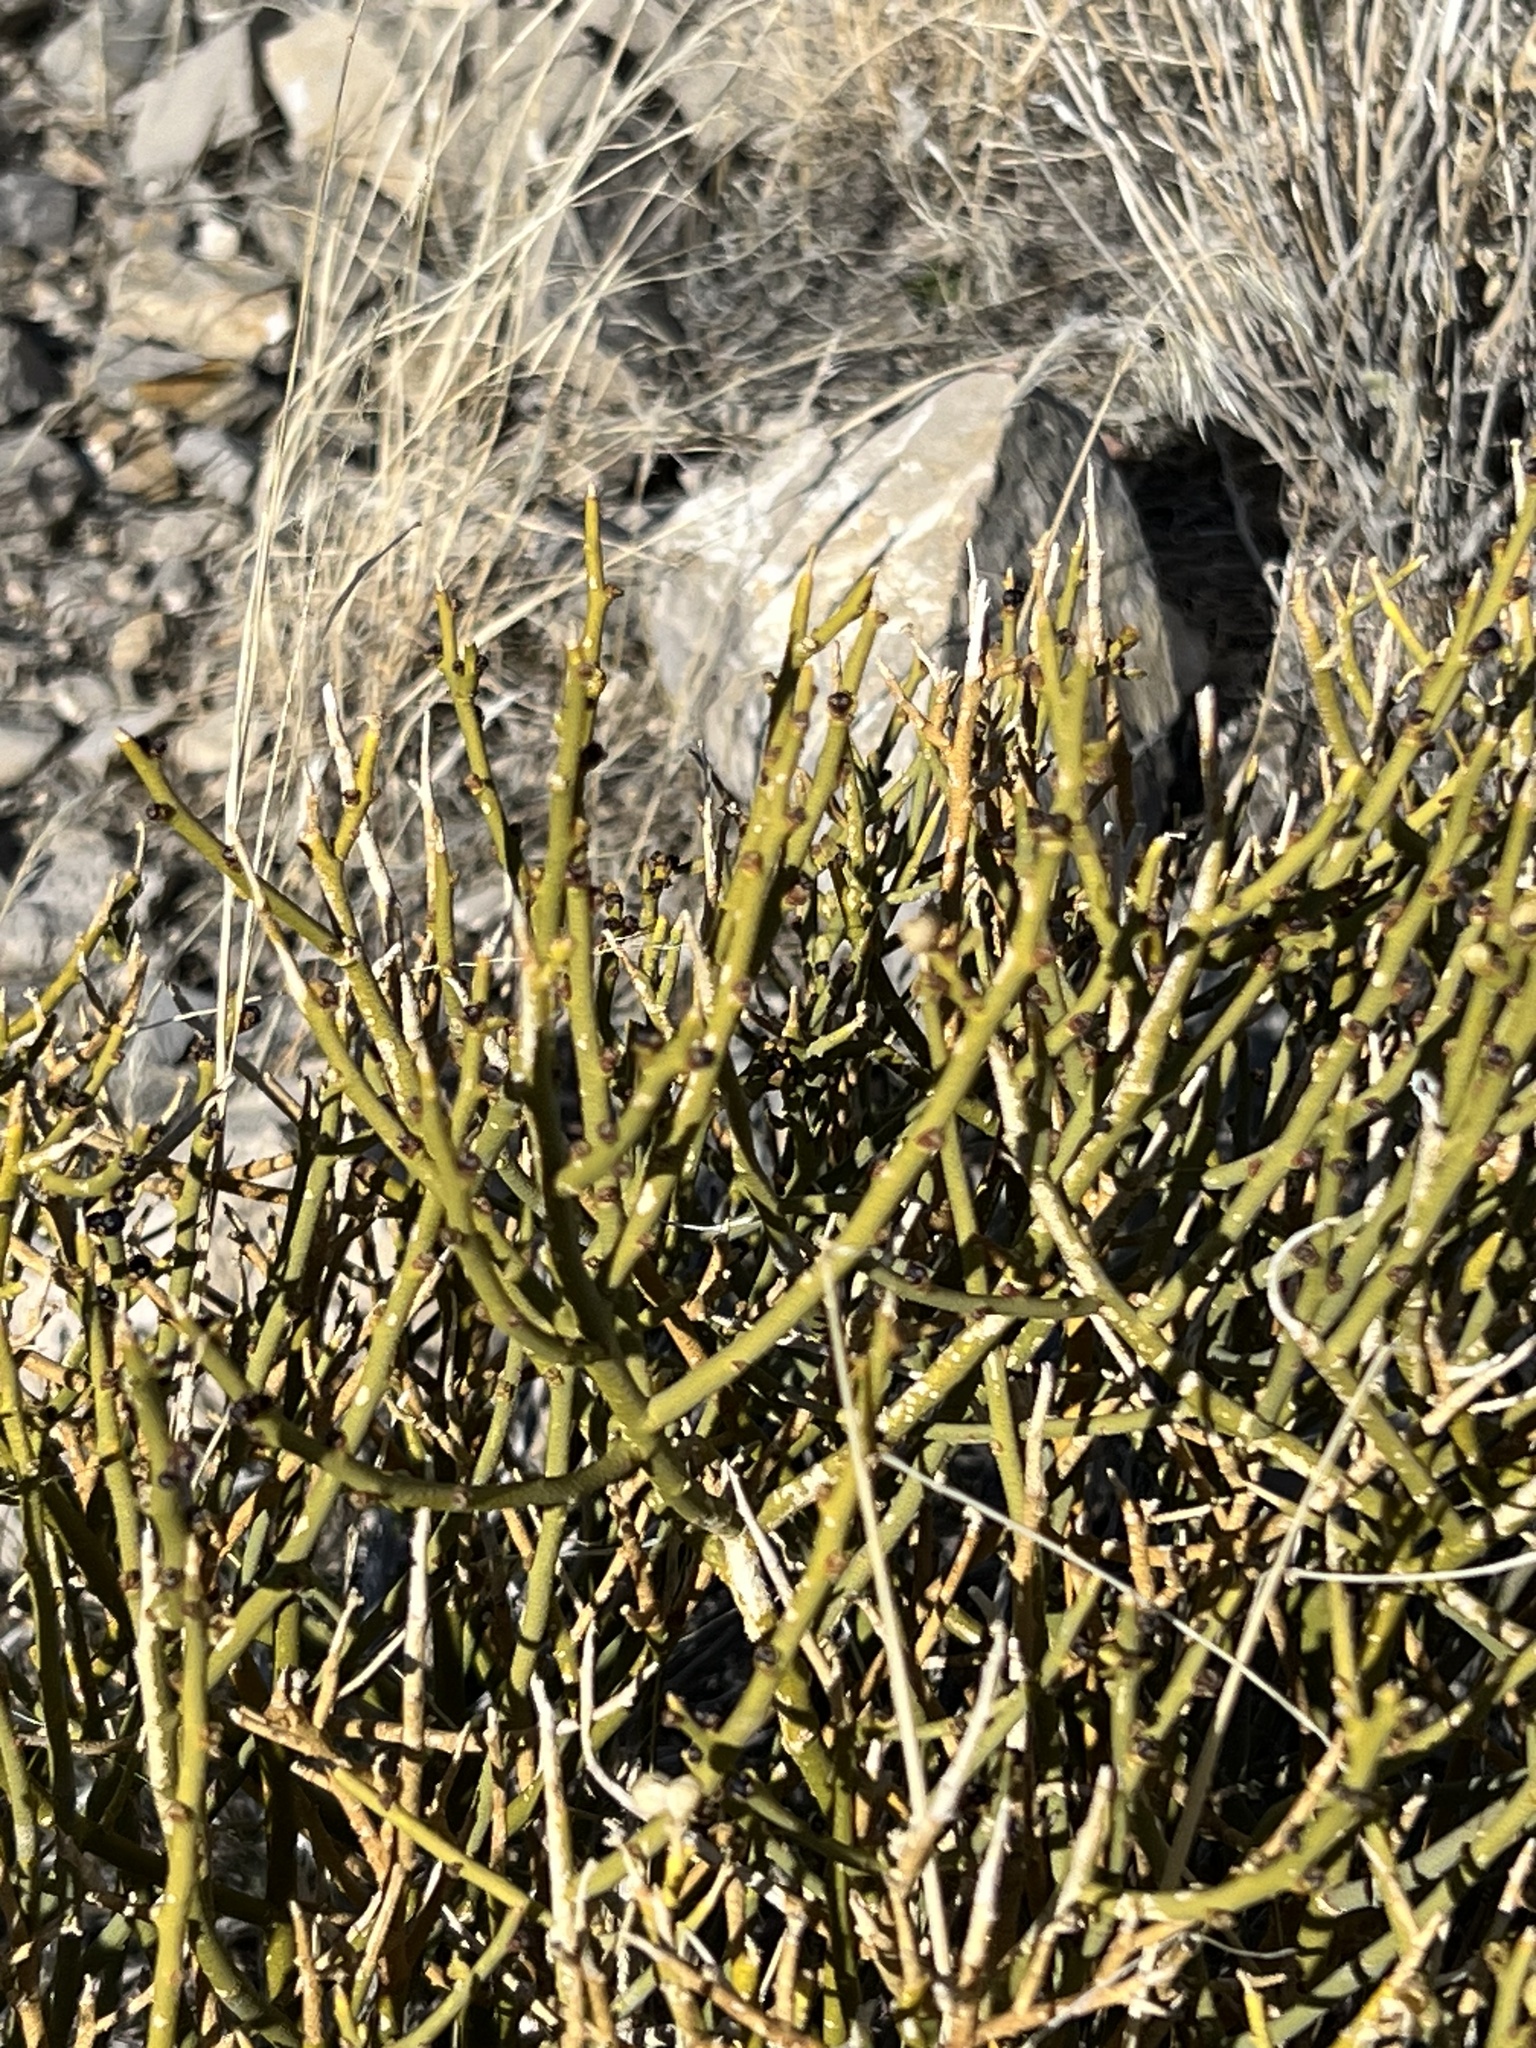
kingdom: Plantae
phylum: Tracheophyta
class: Magnoliopsida
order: Sapindales
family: Rutaceae
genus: Thamnosma
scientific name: Thamnosma montana
